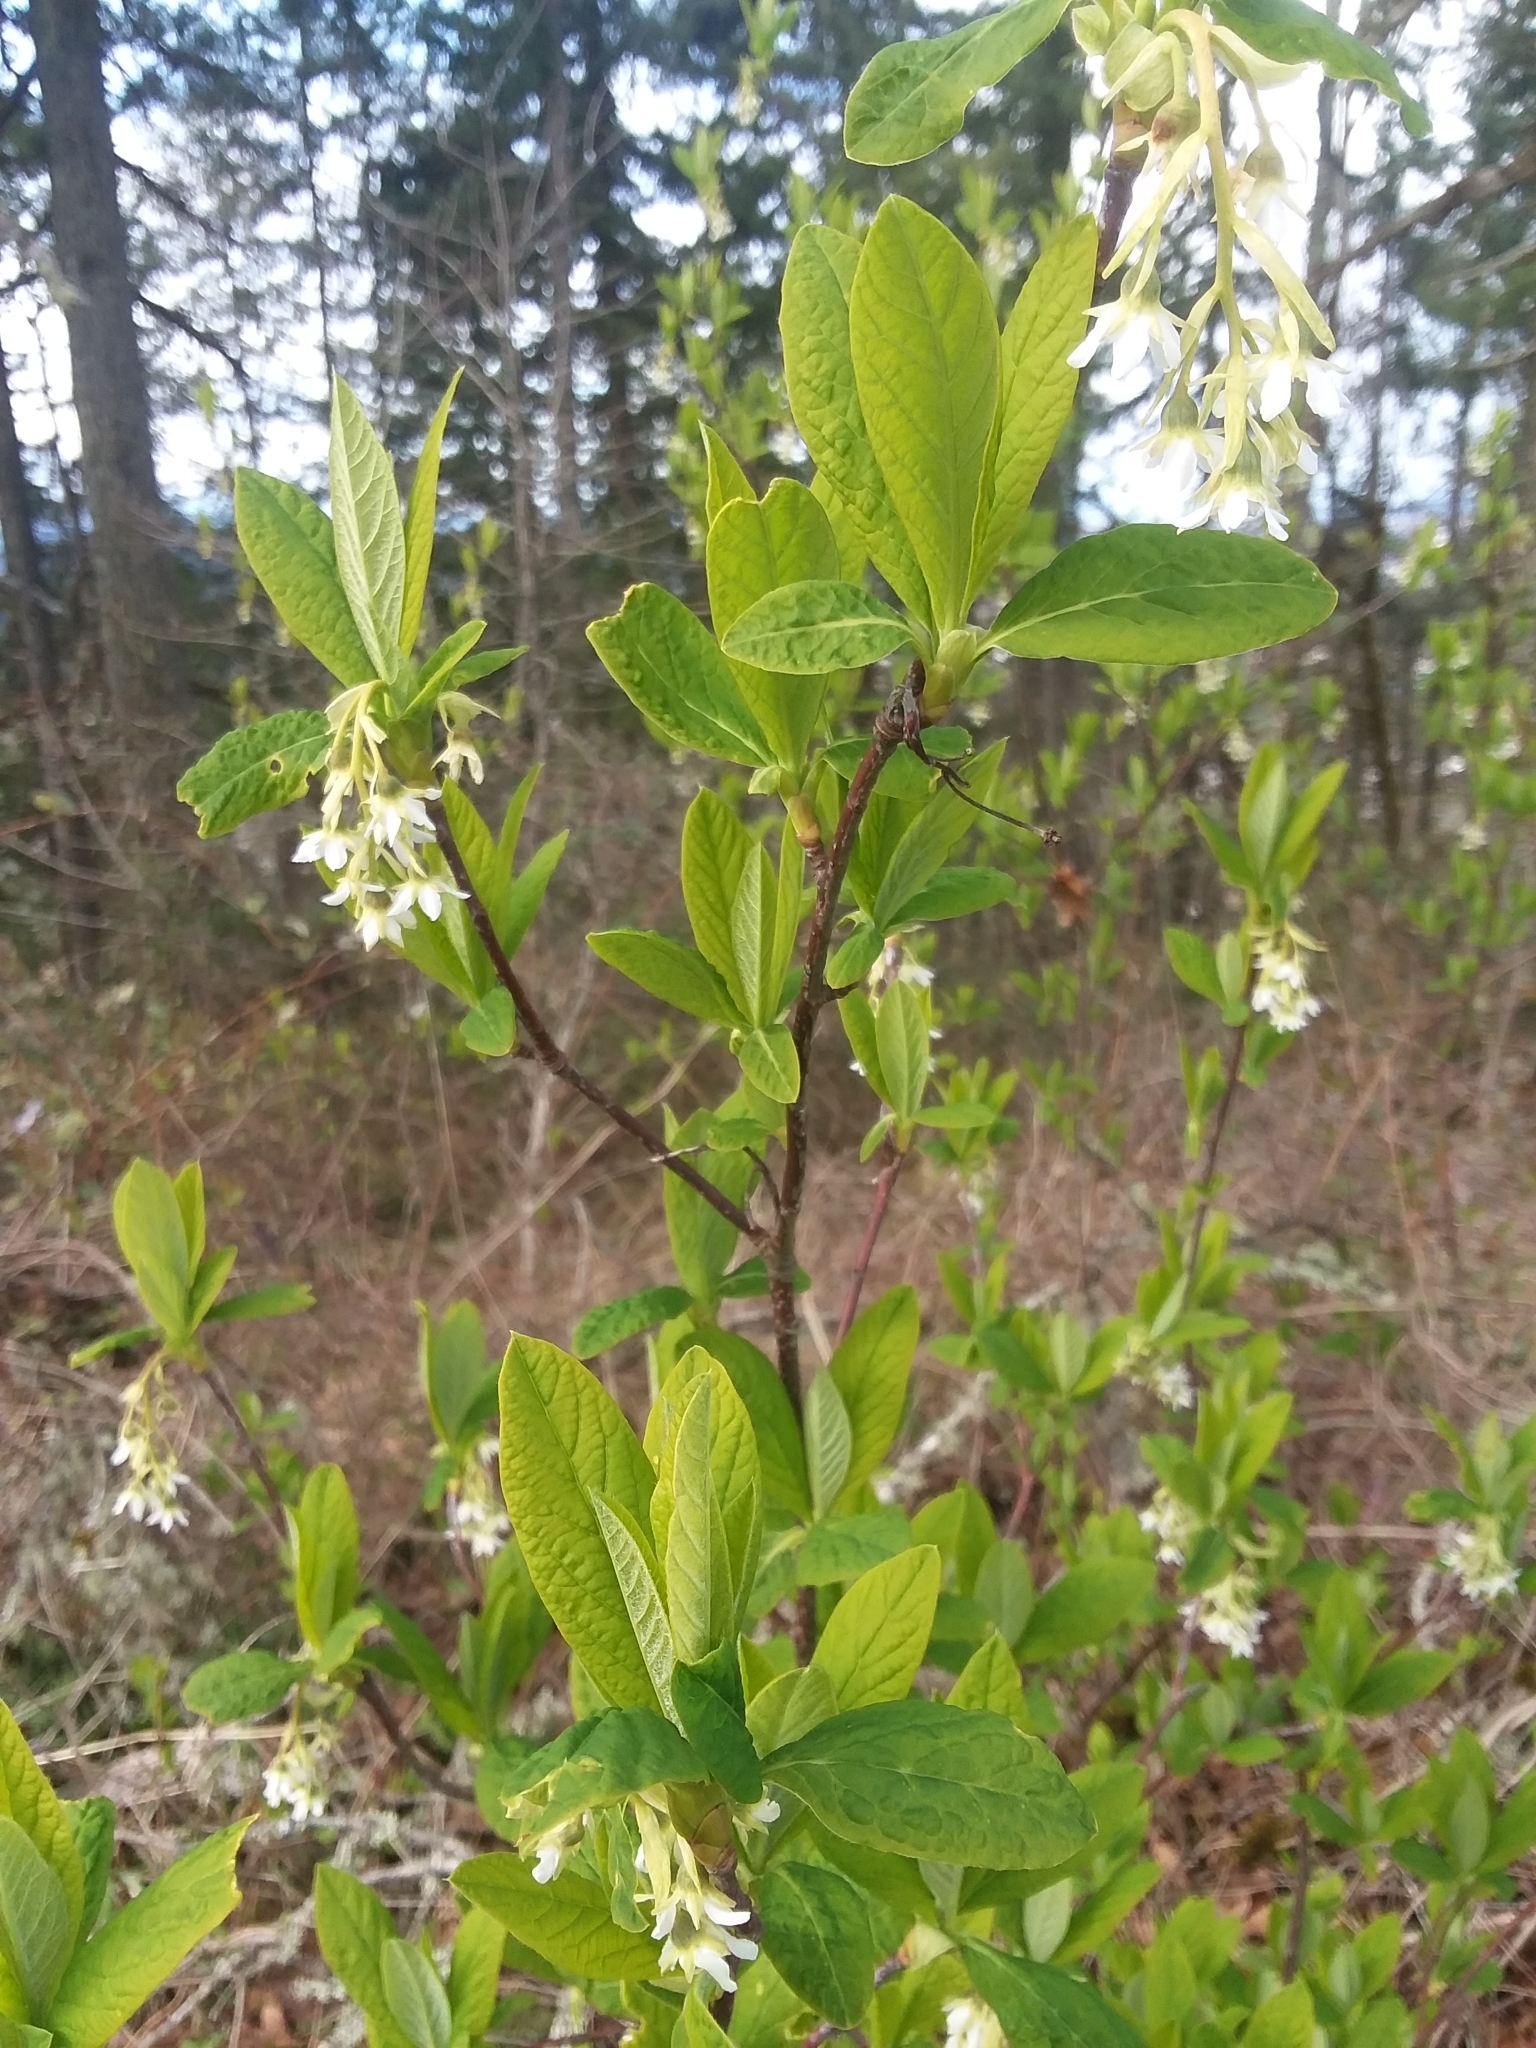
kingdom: Plantae
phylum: Tracheophyta
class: Magnoliopsida
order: Rosales
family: Rosaceae
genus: Oemleria
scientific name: Oemleria cerasiformis
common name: Osoberry
